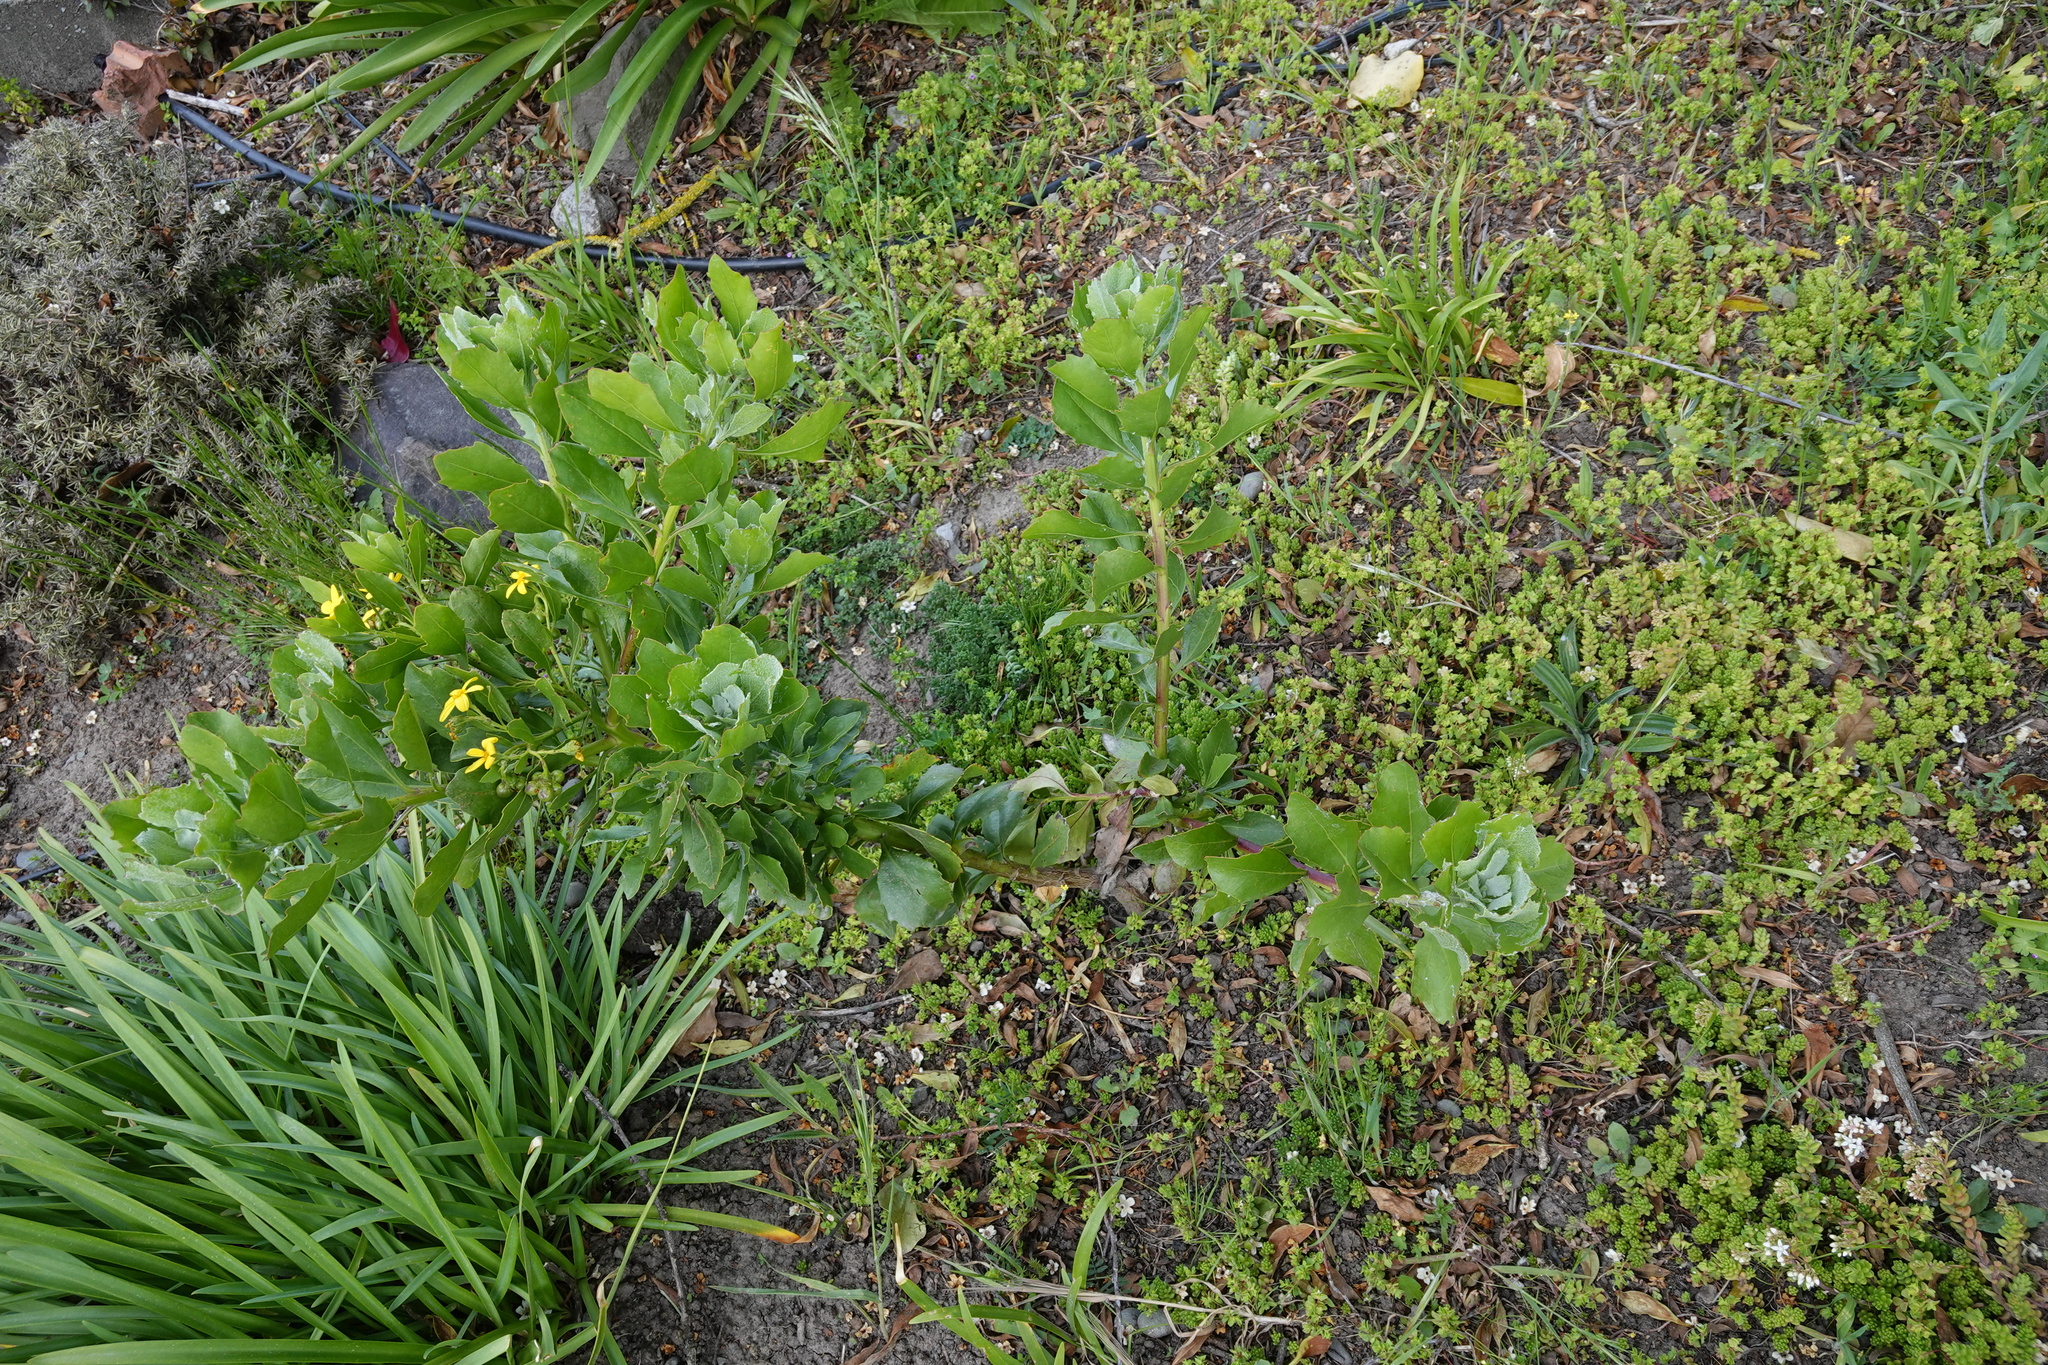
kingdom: Plantae
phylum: Tracheophyta
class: Magnoliopsida
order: Asterales
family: Asteraceae
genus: Osteospermum
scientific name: Osteospermum moniliferum
